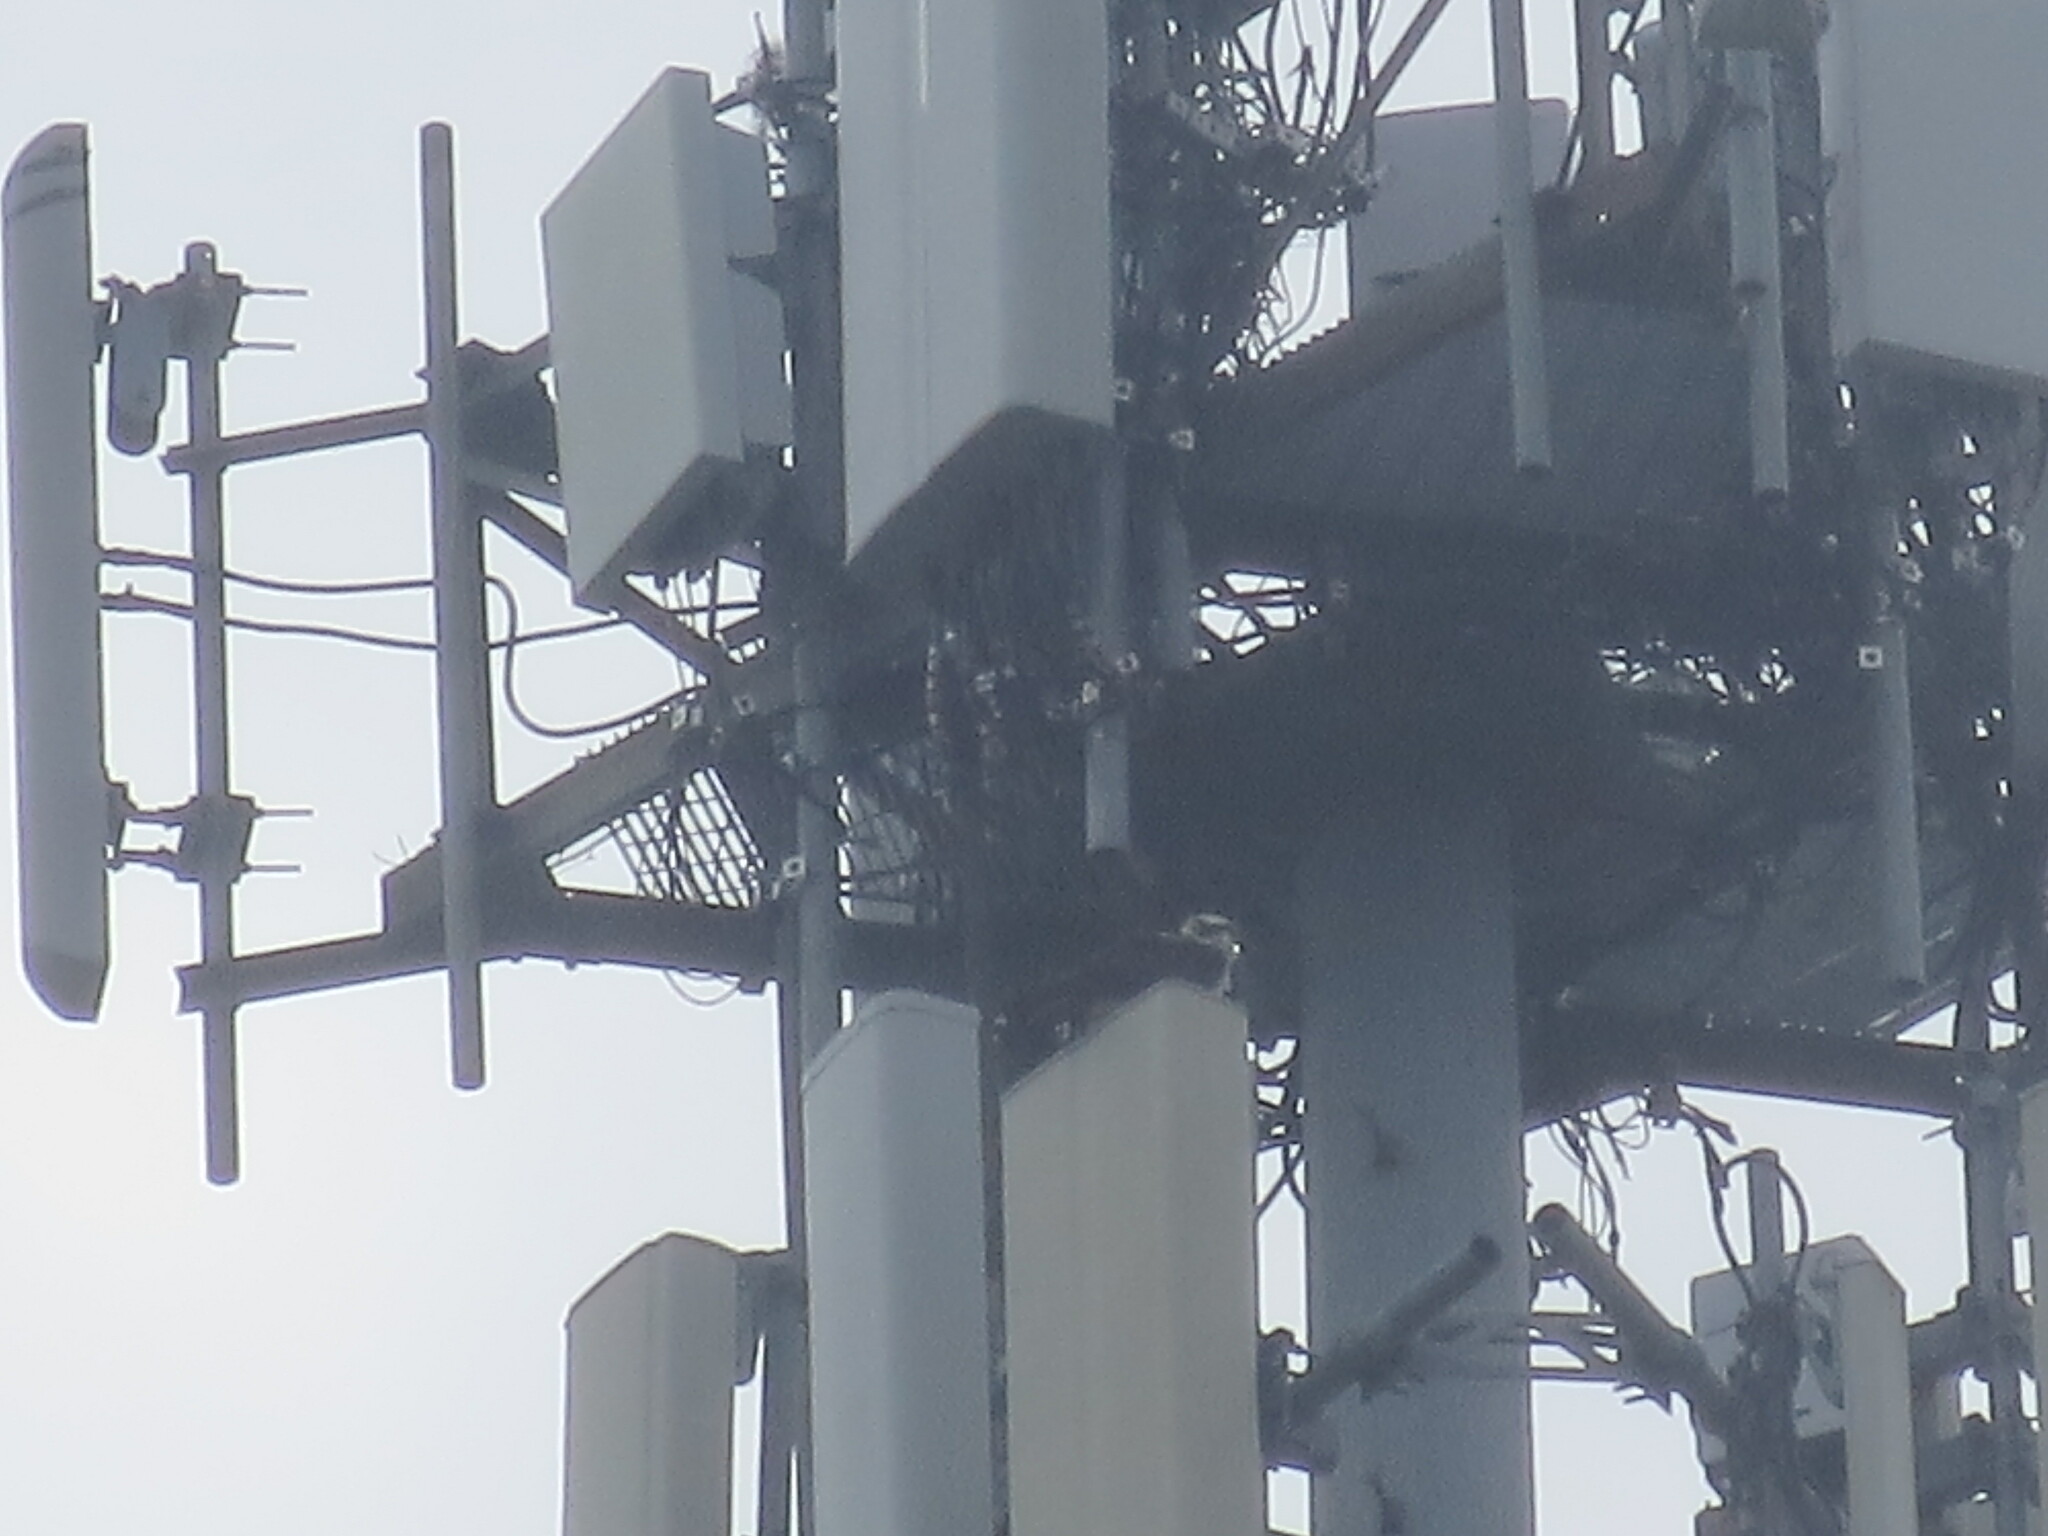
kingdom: Animalia
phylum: Chordata
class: Aves
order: Accipitriformes
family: Pandionidae
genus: Pandion
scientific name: Pandion haliaetus
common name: Osprey
